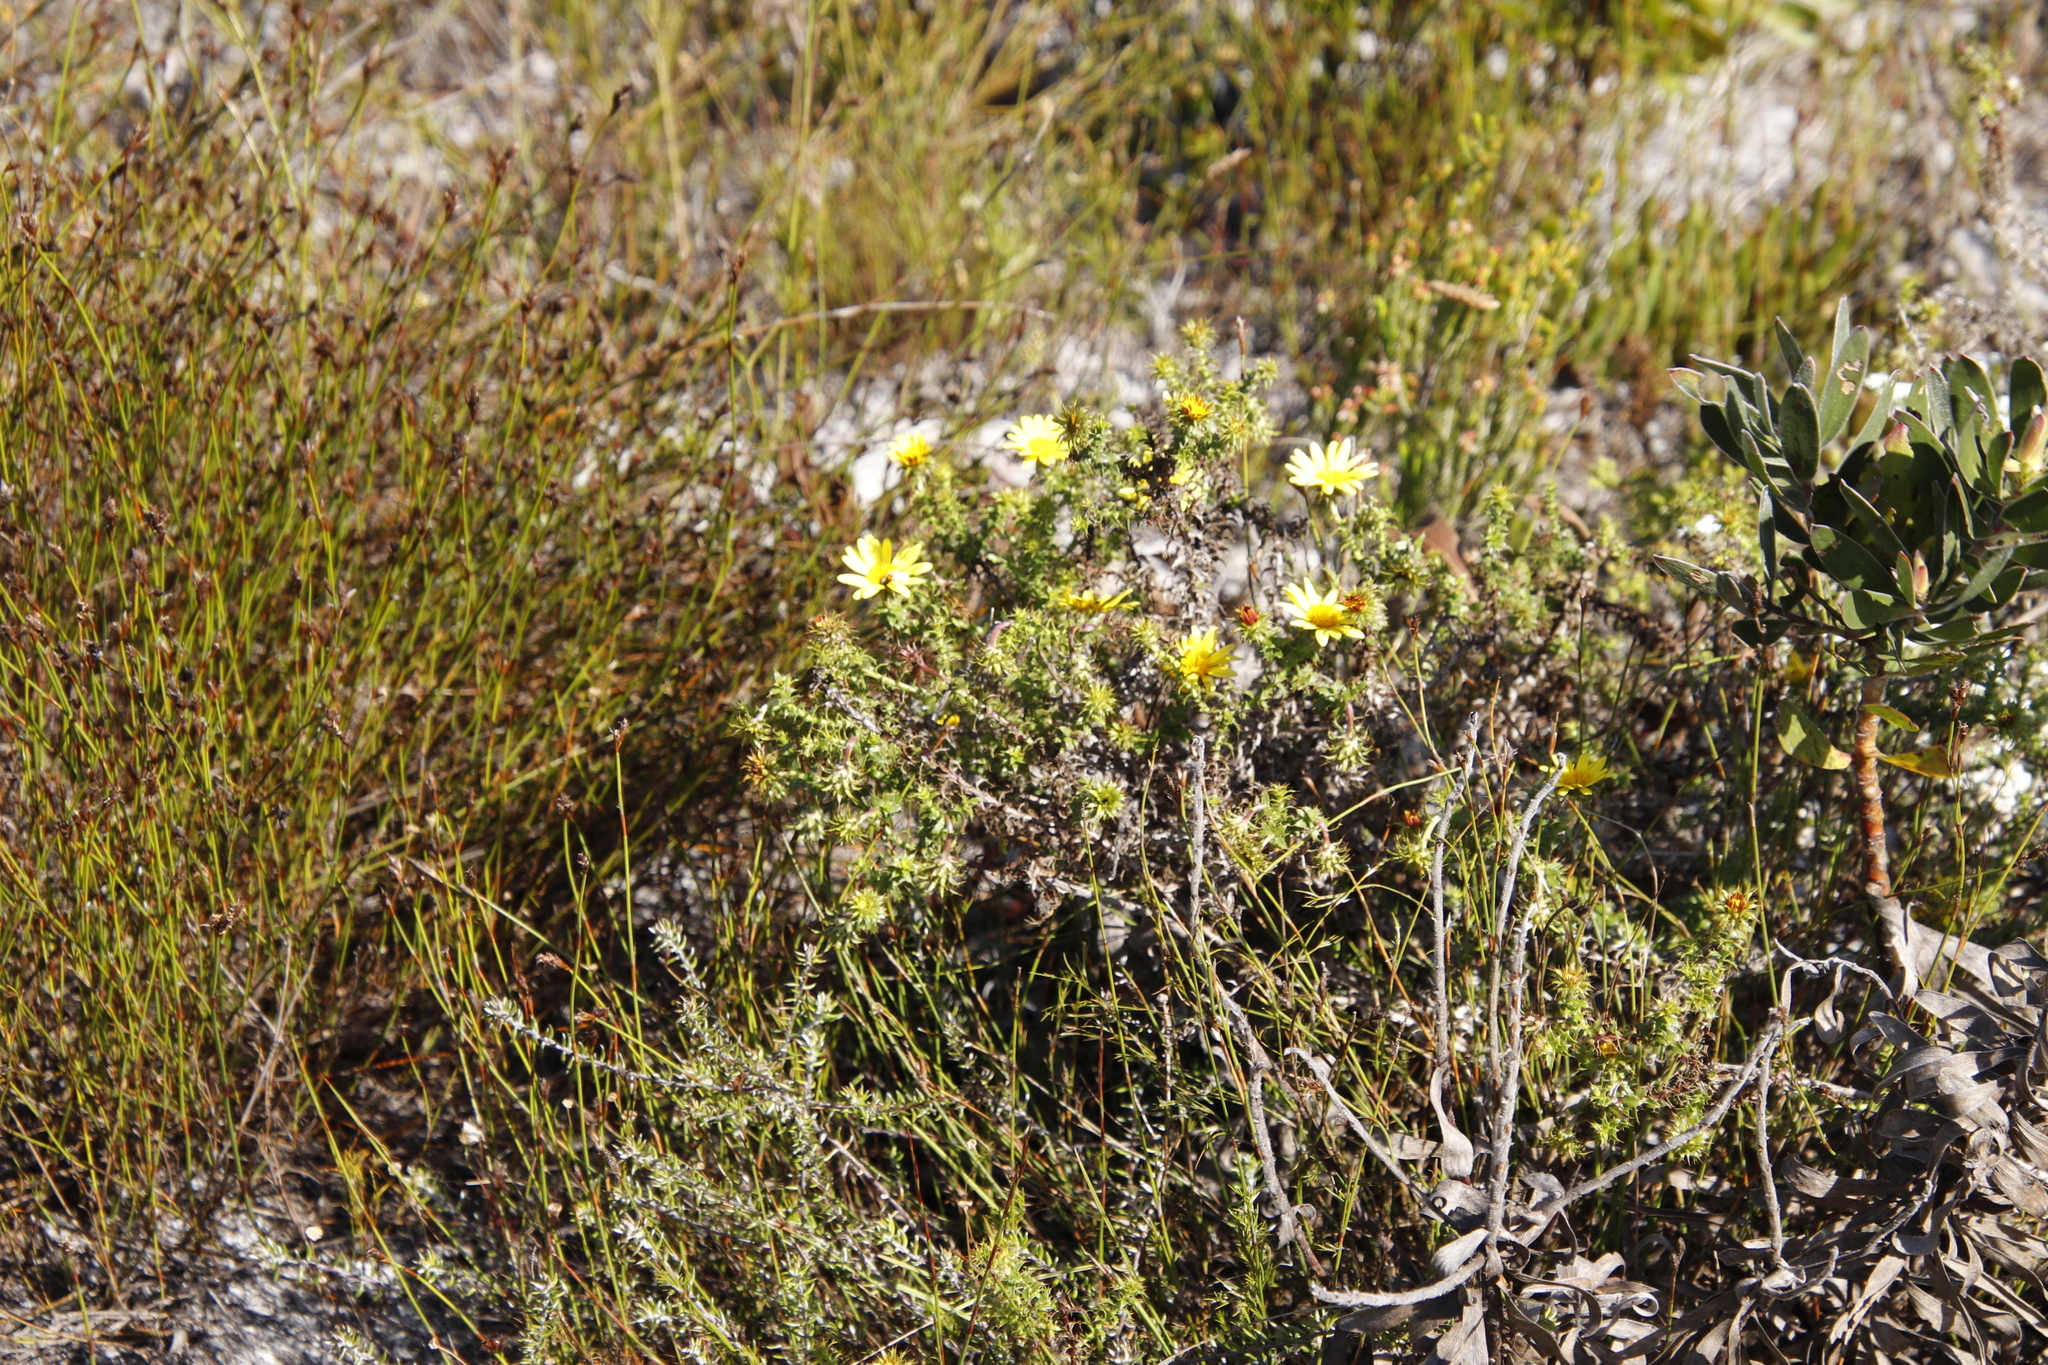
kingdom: Plantae
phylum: Tracheophyta
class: Magnoliopsida
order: Asterales
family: Asteraceae
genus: Cullumia
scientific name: Cullumia setosa
